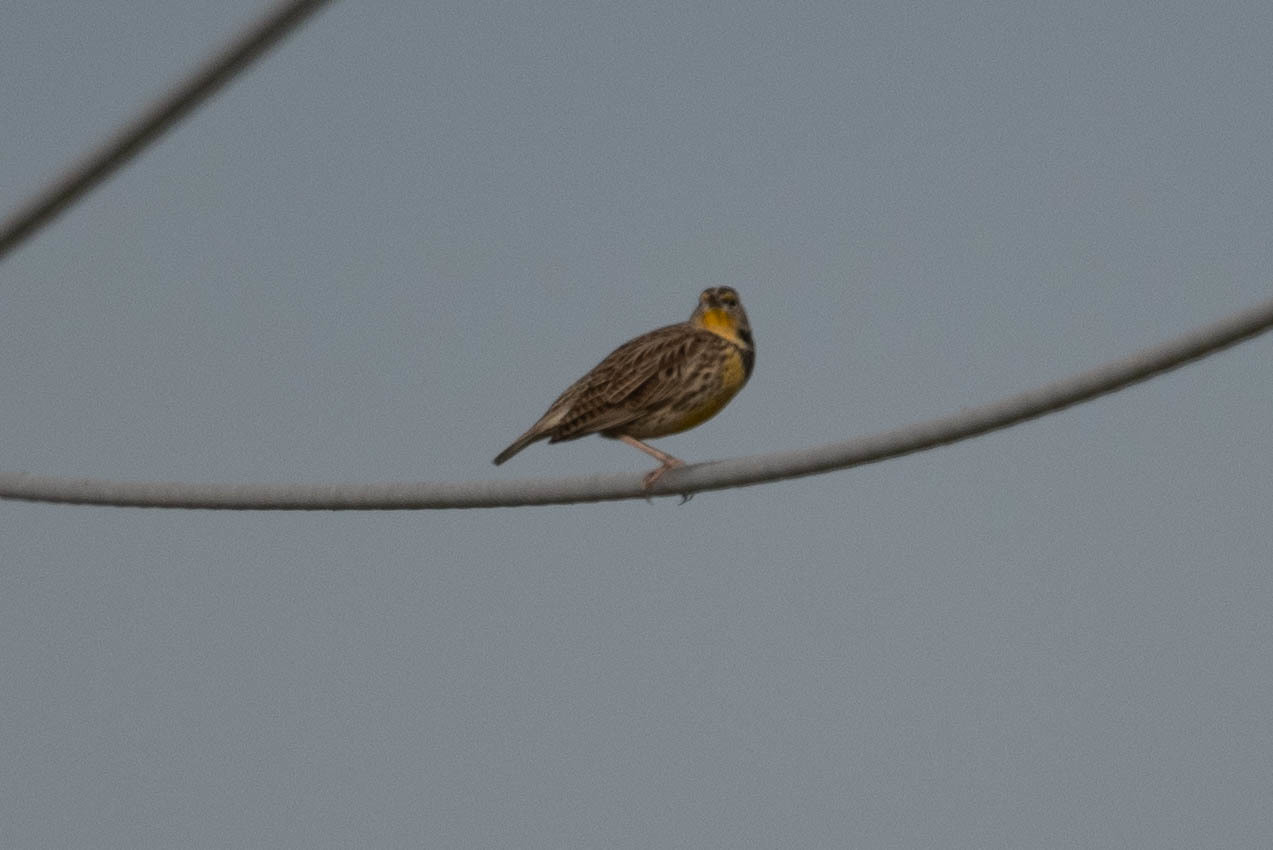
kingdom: Animalia
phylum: Chordata
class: Aves
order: Passeriformes
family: Icteridae
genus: Sturnella
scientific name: Sturnella neglecta
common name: Western meadowlark
